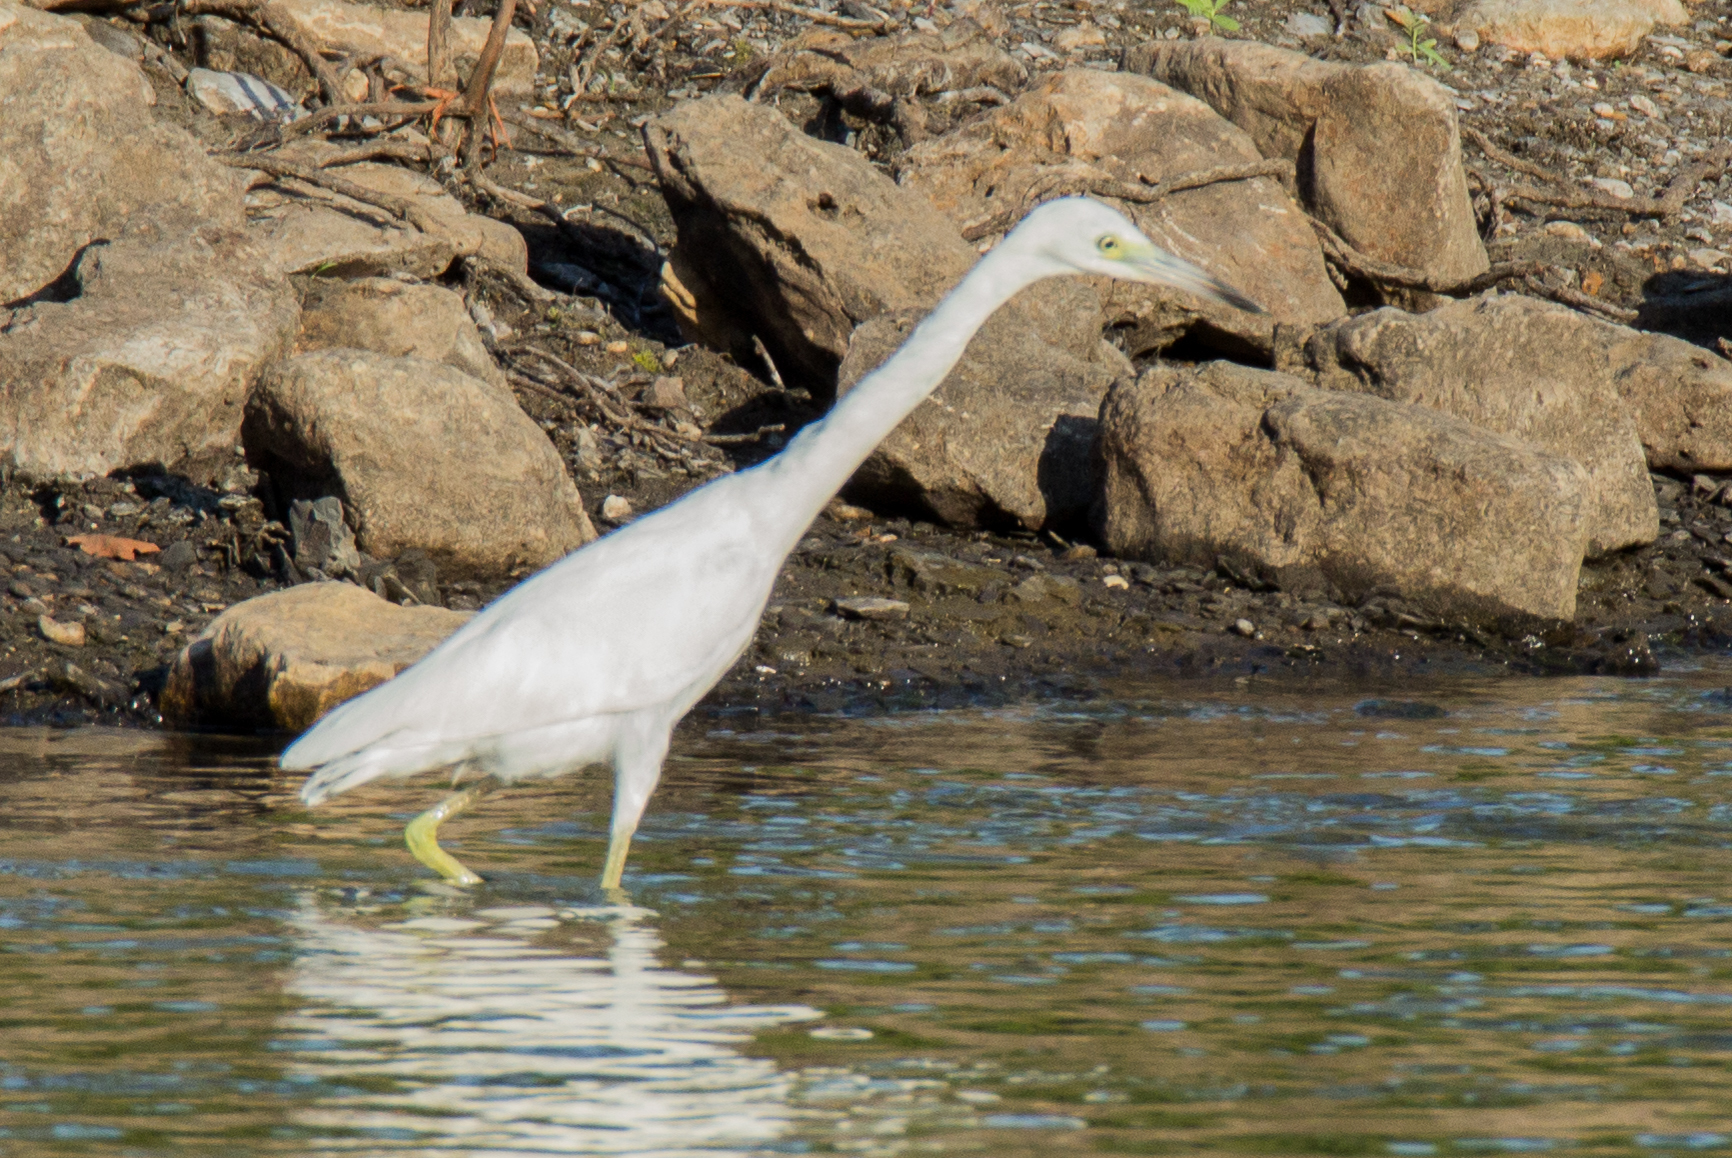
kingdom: Animalia
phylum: Chordata
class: Aves
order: Pelecaniformes
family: Ardeidae
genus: Egretta
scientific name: Egretta caerulea
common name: Little blue heron
